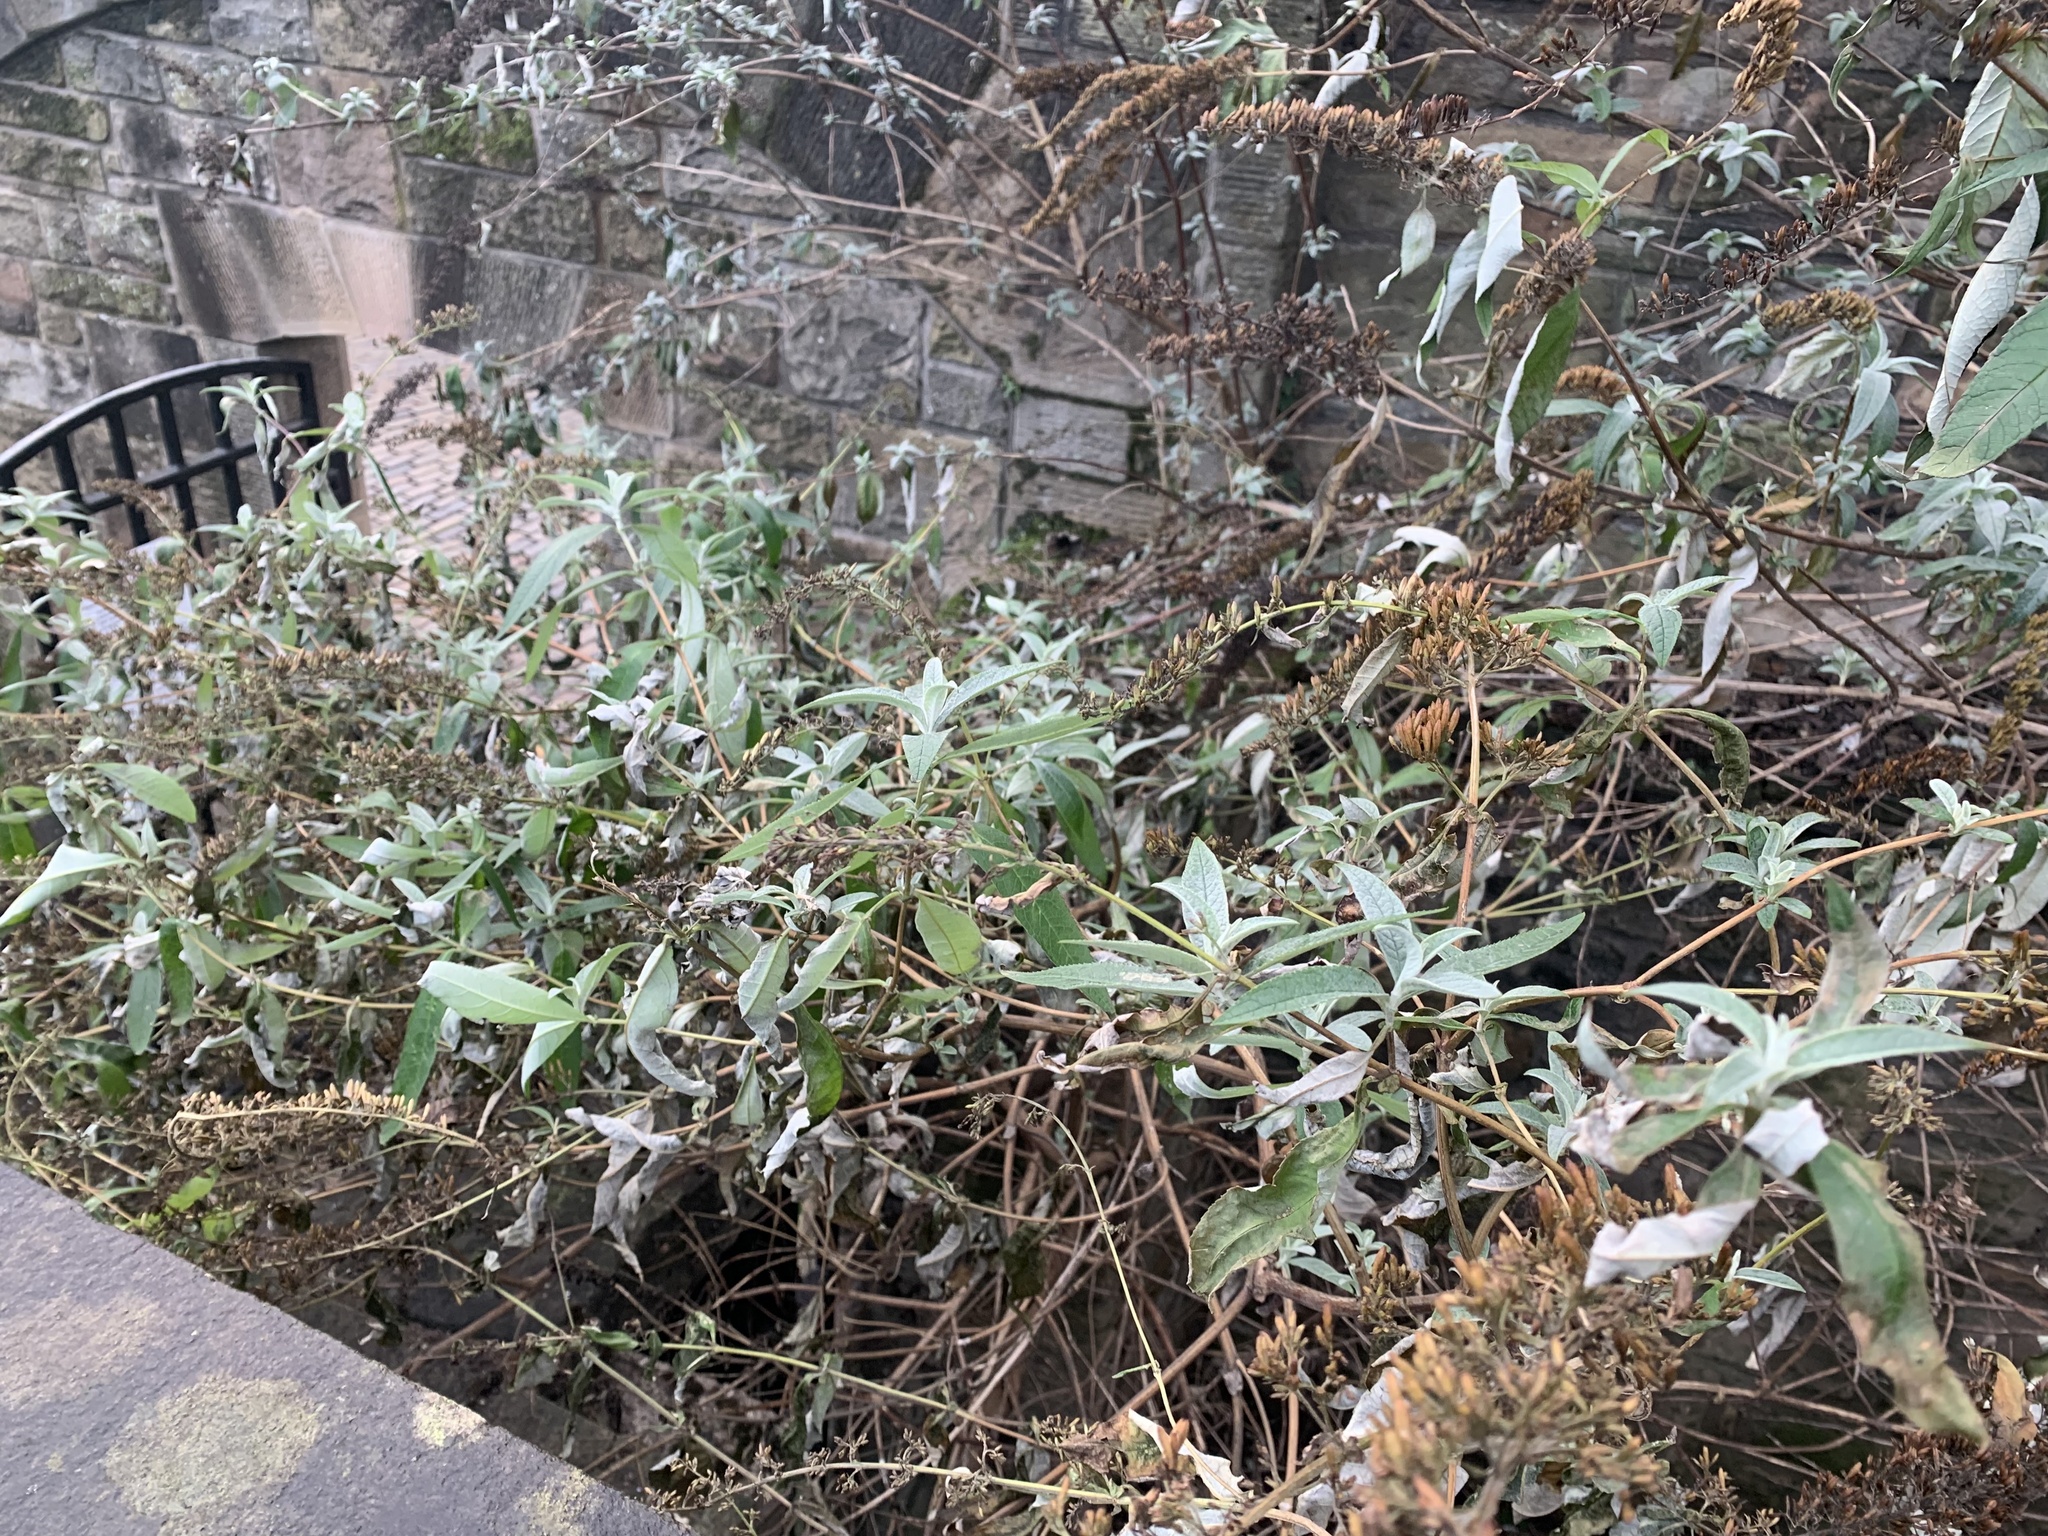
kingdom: Plantae
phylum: Tracheophyta
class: Magnoliopsida
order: Lamiales
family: Scrophulariaceae
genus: Buddleja
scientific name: Buddleja davidii
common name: Butterfly-bush
